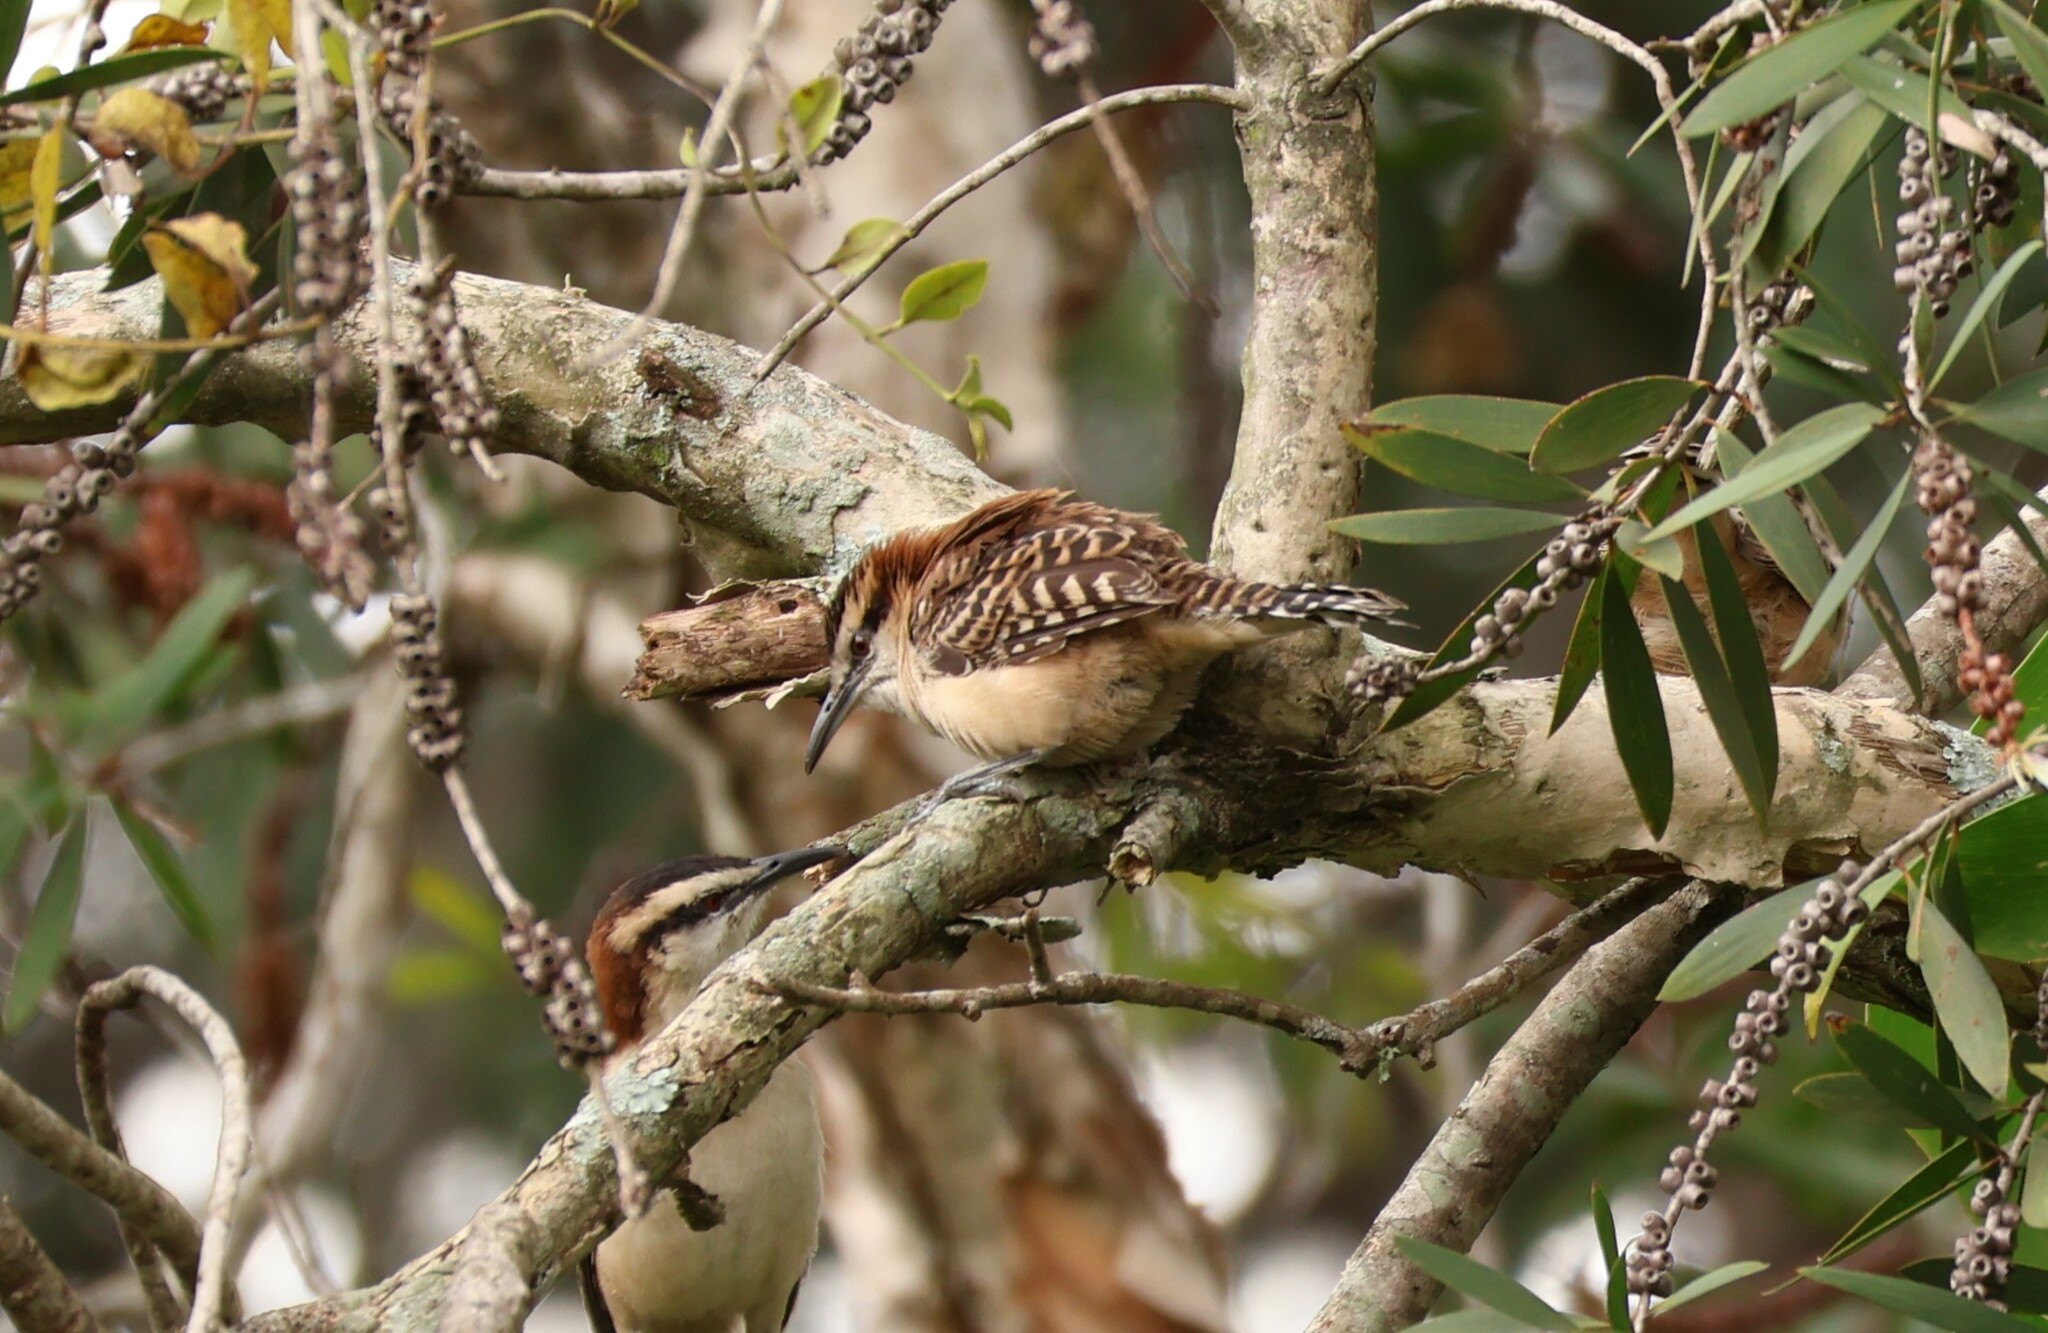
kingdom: Animalia
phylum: Chordata
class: Aves
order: Passeriformes
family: Troglodytidae
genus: Campylorhynchus
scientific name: Campylorhynchus rufinucha
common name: Rufous-naped wren
